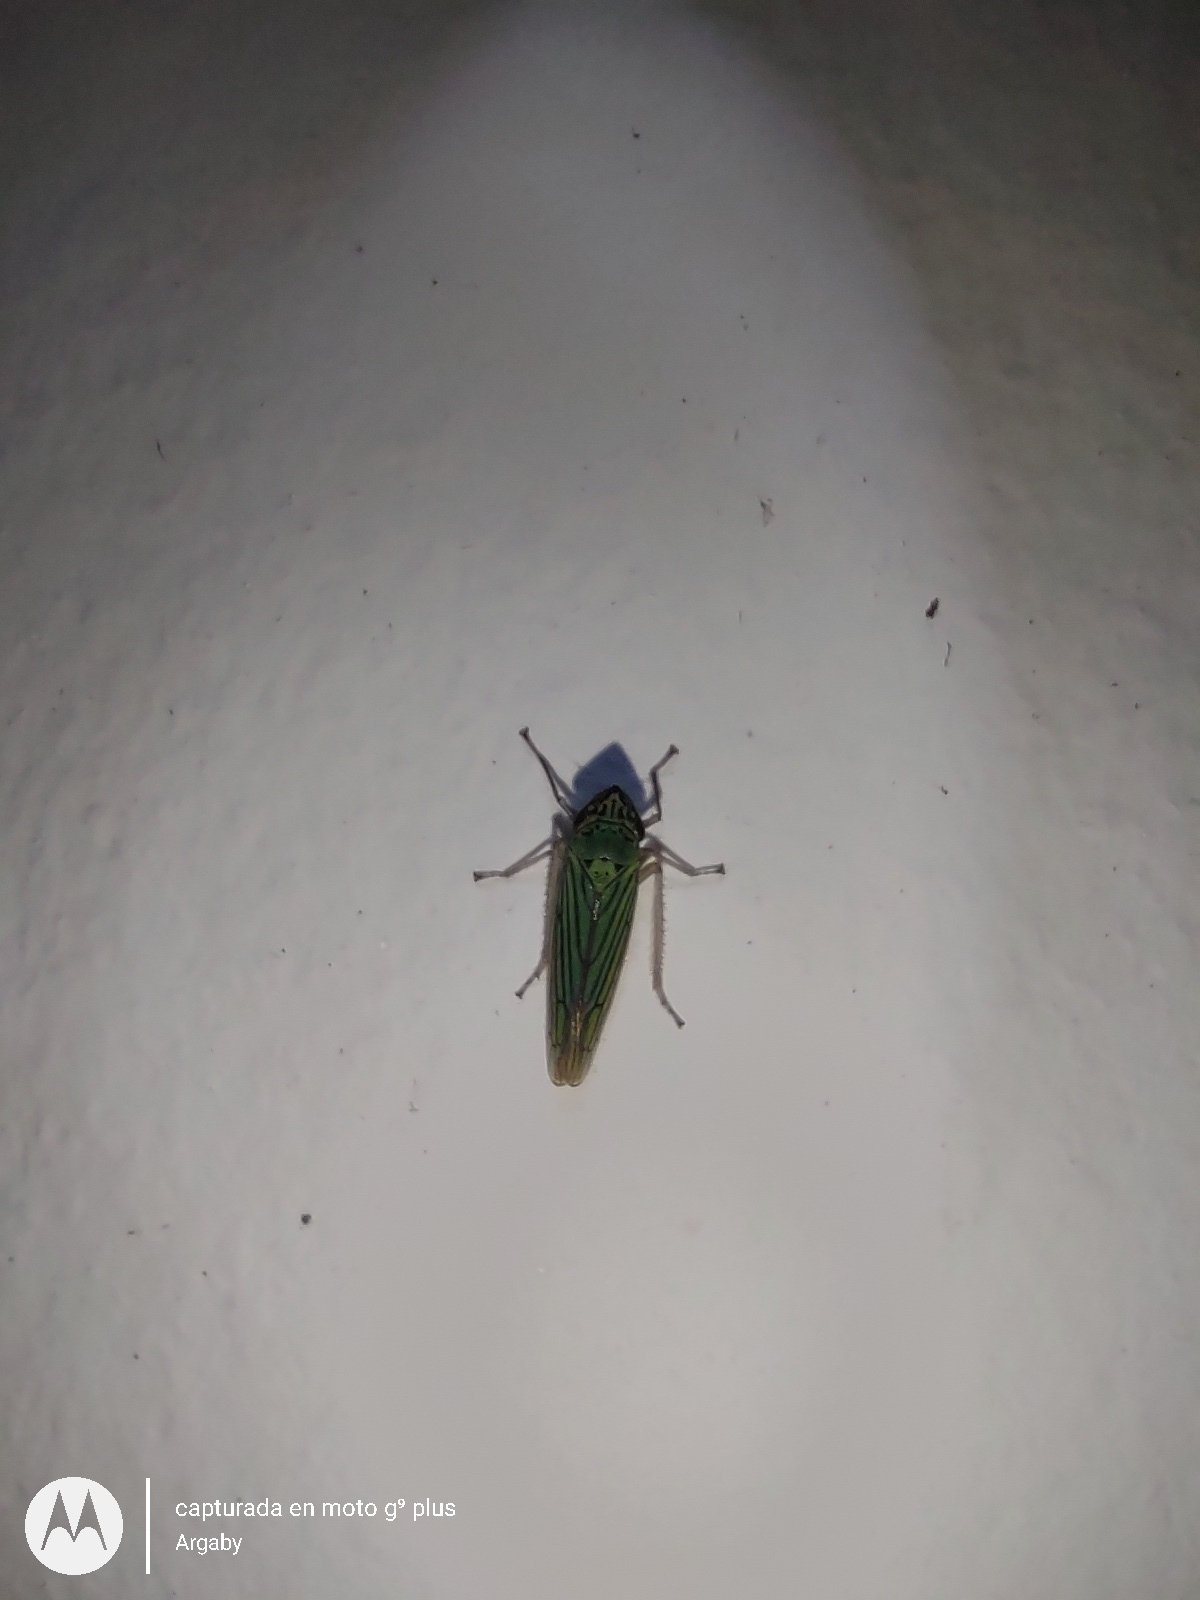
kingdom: Animalia
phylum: Arthropoda
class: Insecta
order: Hemiptera
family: Cicadellidae
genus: Syncharina
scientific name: Syncharina argentina
